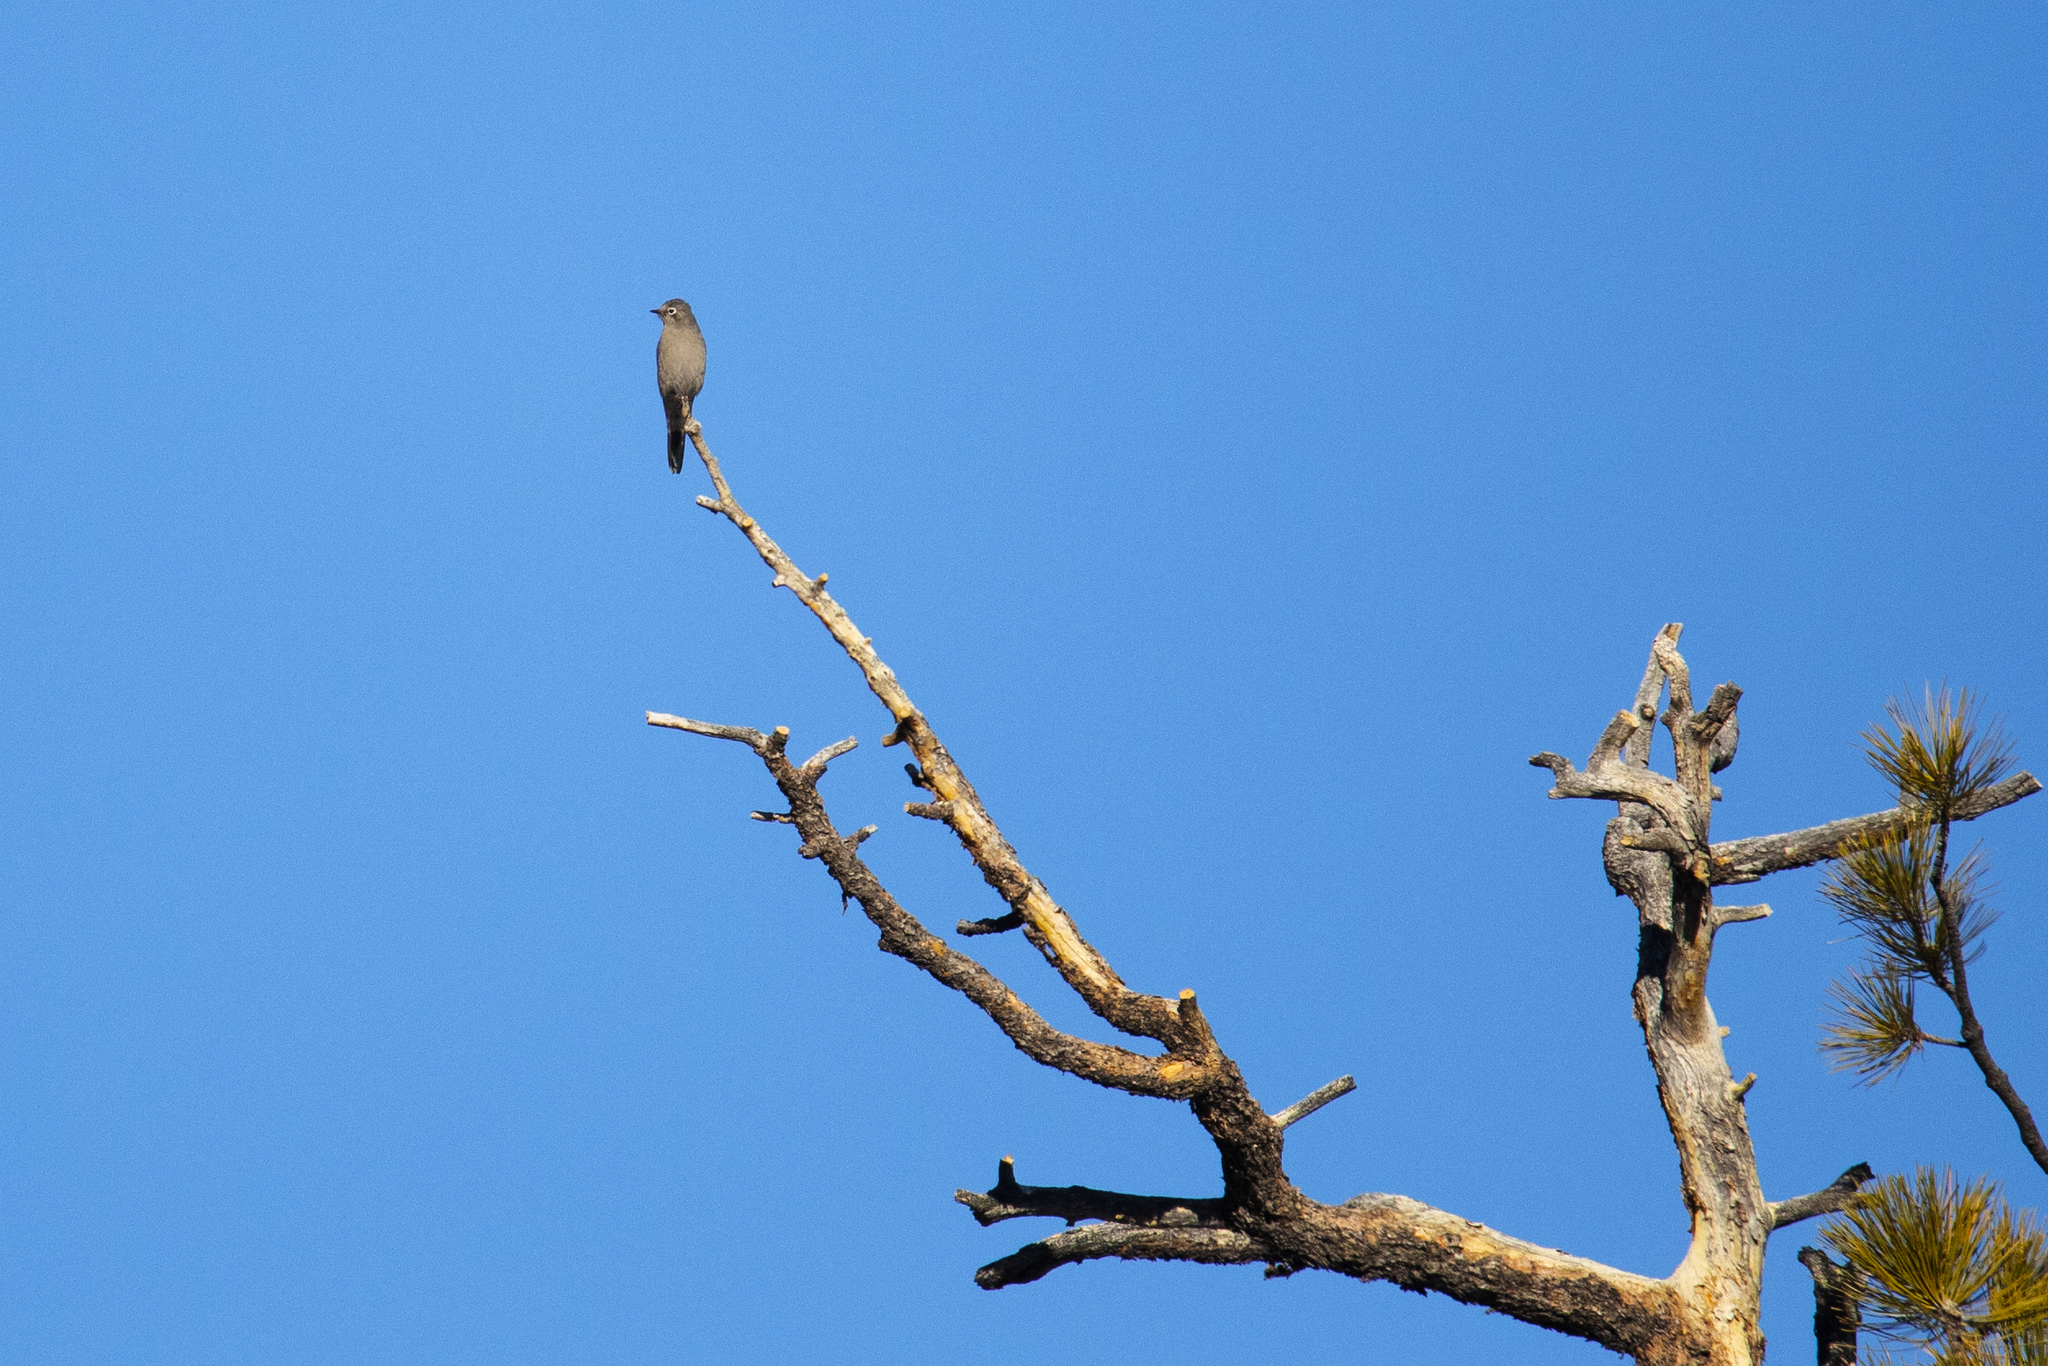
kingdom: Animalia
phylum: Chordata
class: Aves
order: Passeriformes
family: Turdidae
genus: Myadestes
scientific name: Myadestes townsendi
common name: Townsend's solitaire
